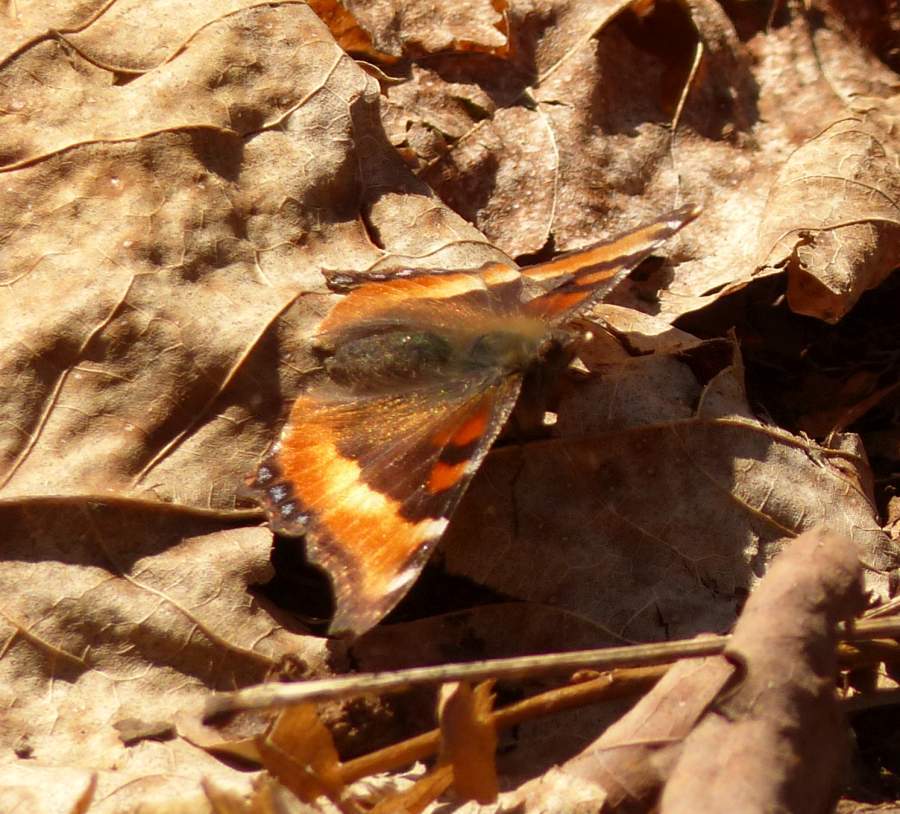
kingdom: Animalia
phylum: Arthropoda
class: Insecta
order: Lepidoptera
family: Nymphalidae
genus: Aglais
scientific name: Aglais milberti
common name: Milbert's tortoiseshell
